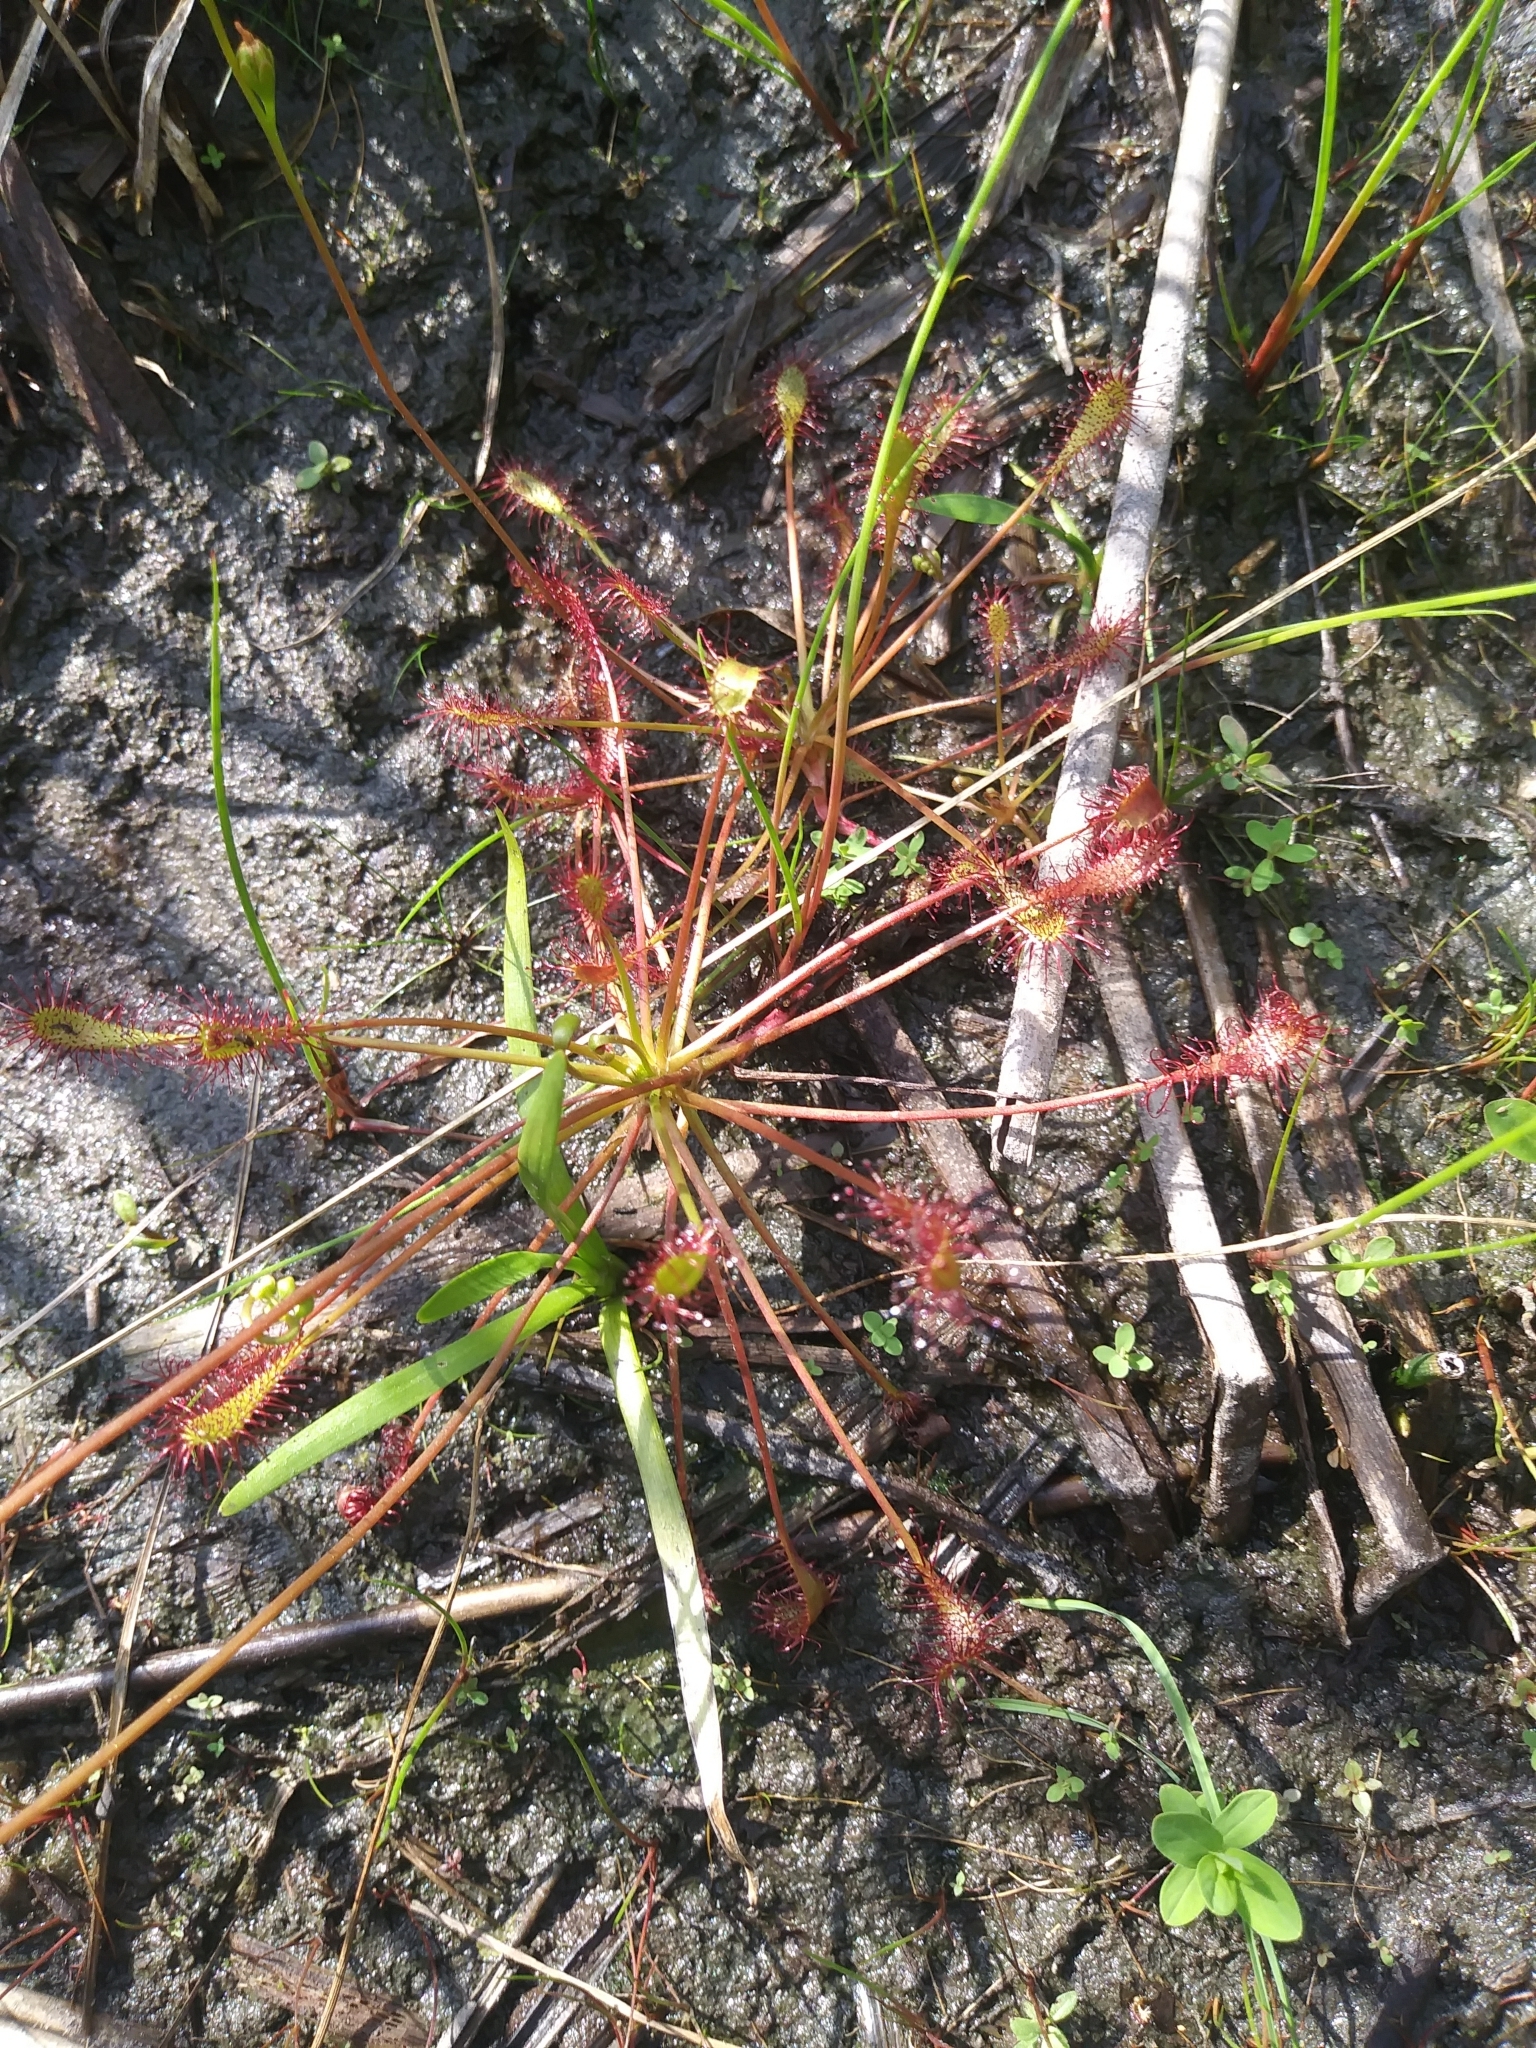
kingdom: Plantae
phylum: Tracheophyta
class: Magnoliopsida
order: Caryophyllales
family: Droseraceae
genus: Drosera
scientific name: Drosera intermedia
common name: Oblong-leaved sundew
